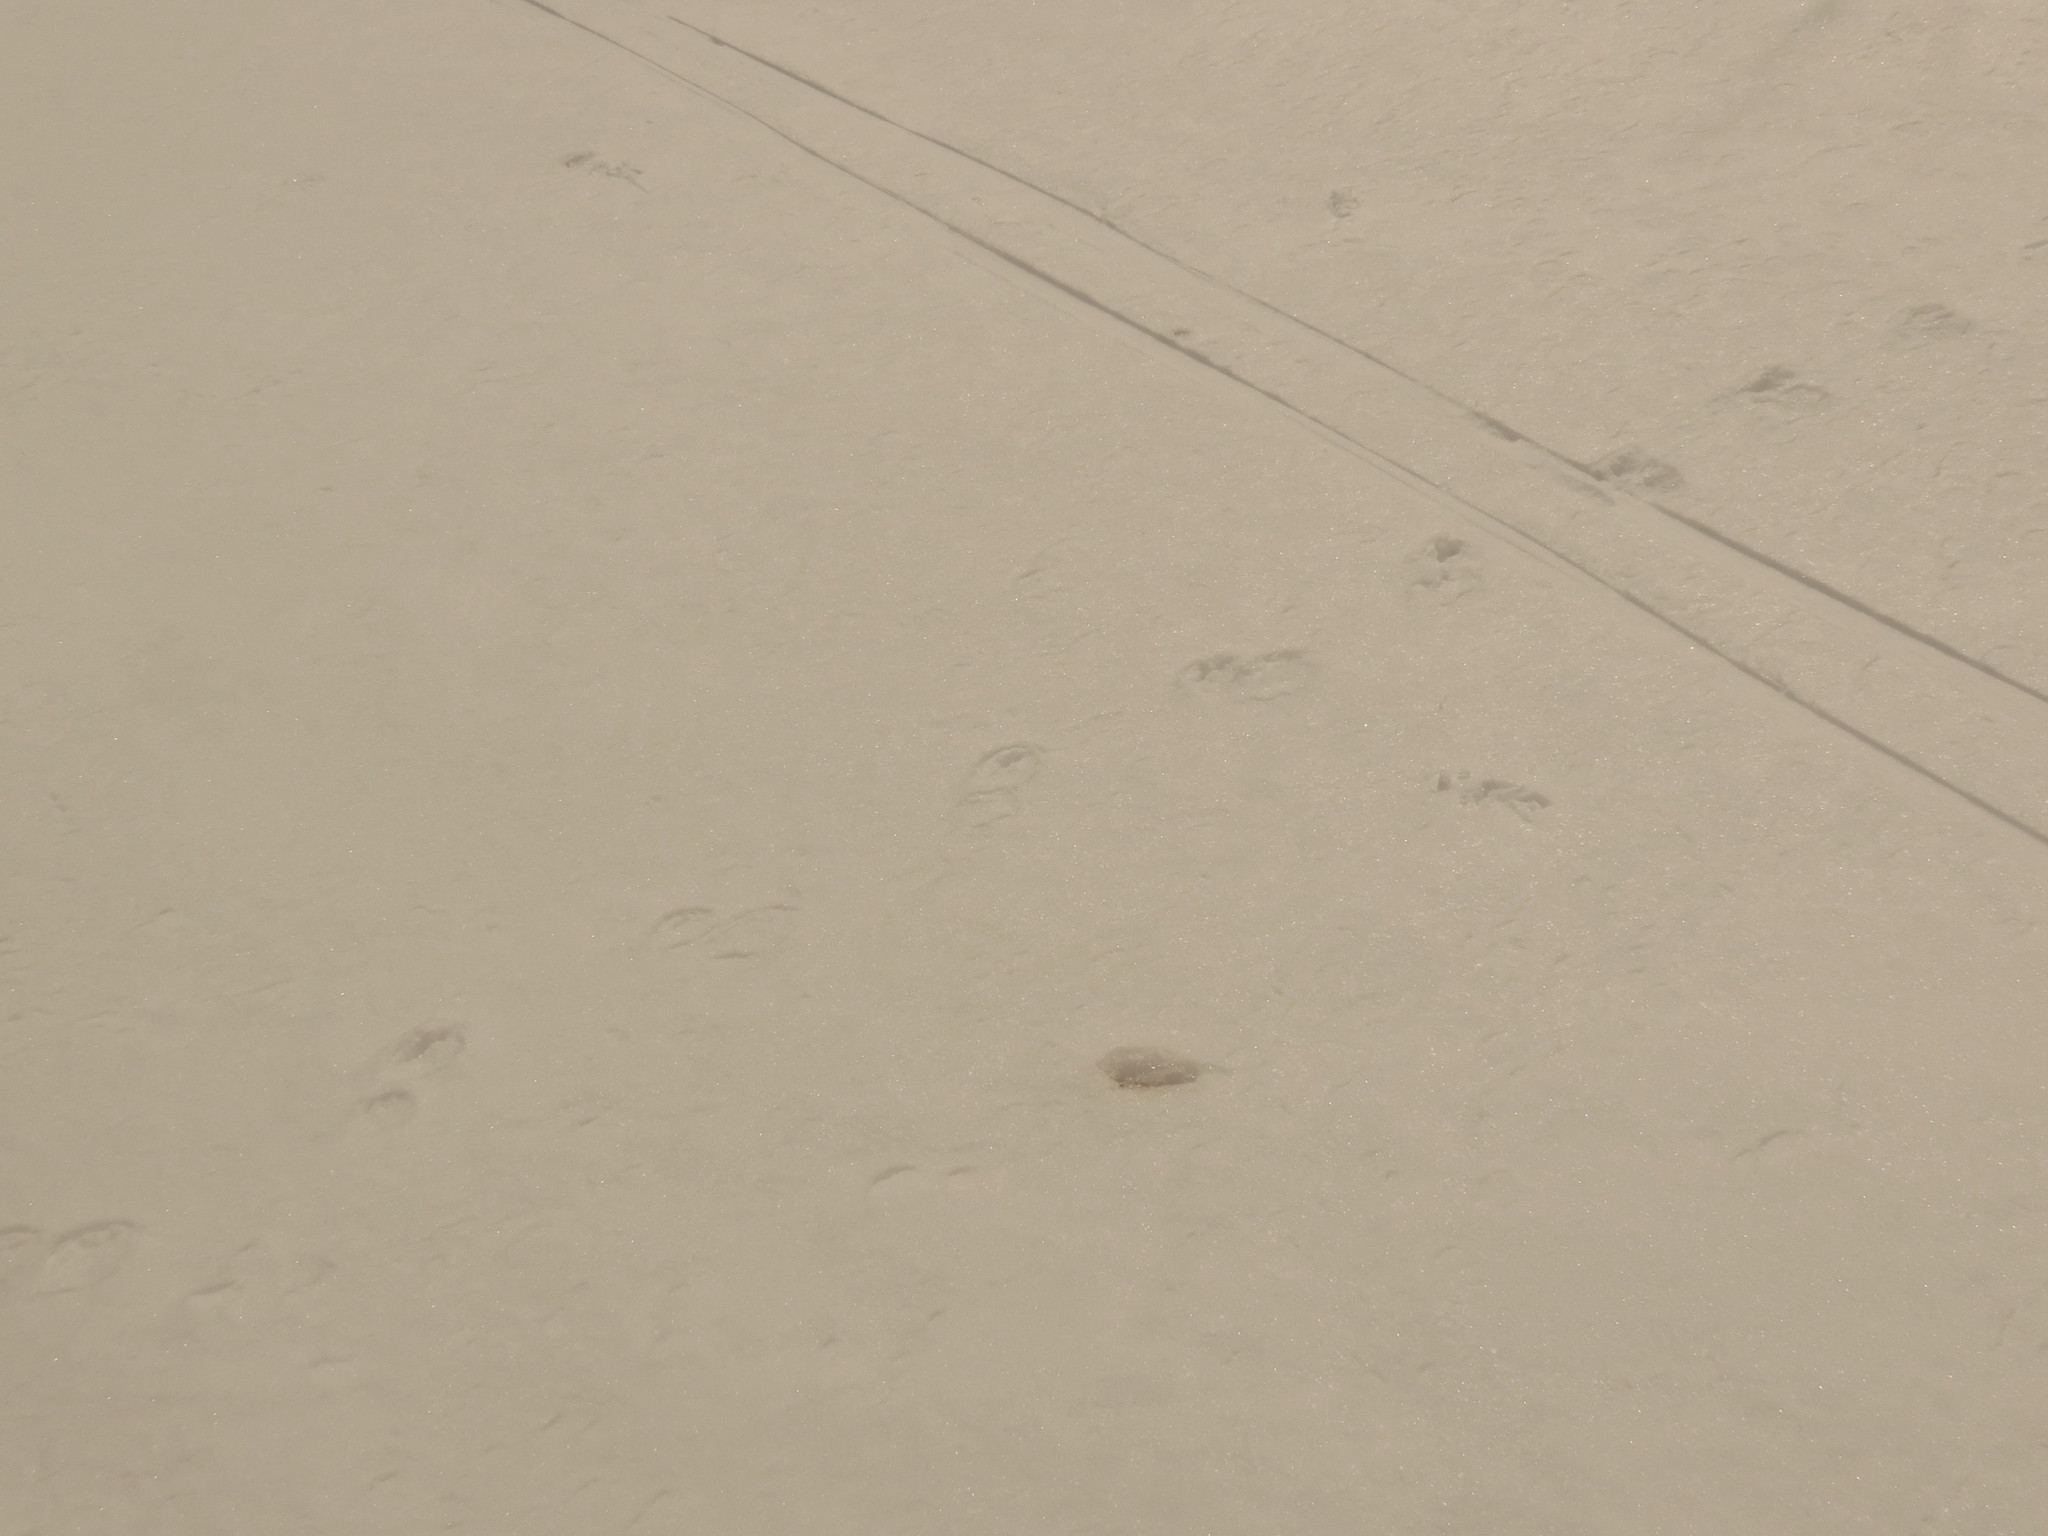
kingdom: Animalia
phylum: Chordata
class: Mammalia
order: Carnivora
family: Mephitidae
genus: Mephitis
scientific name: Mephitis mephitis
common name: Striped skunk
